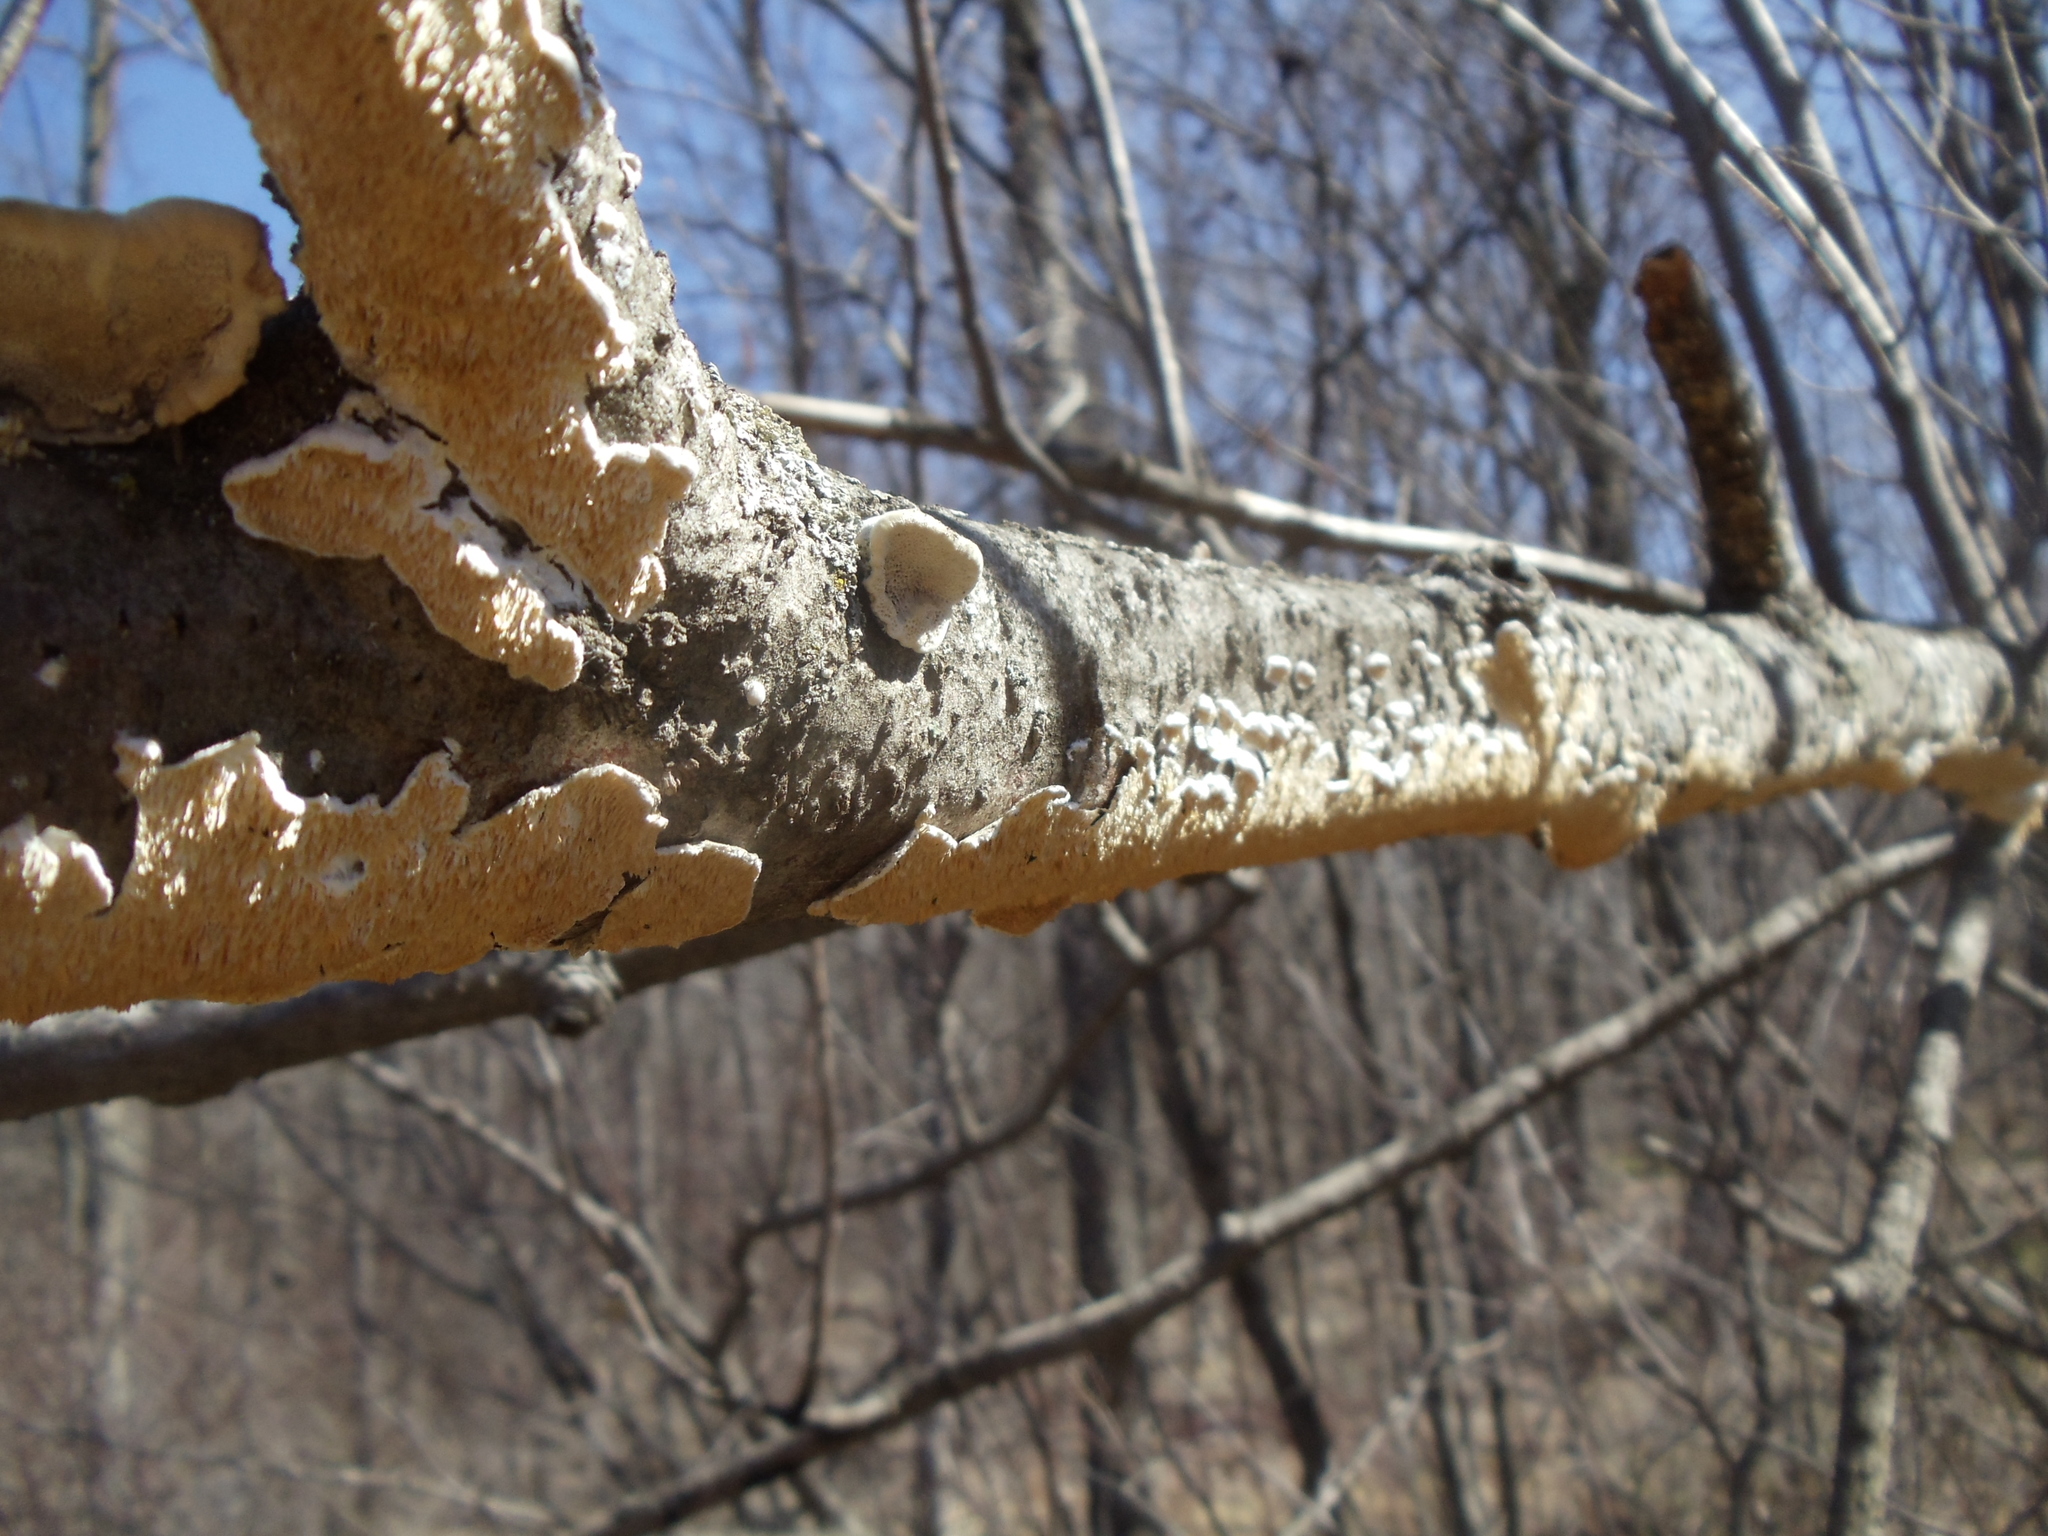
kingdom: Fungi
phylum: Basidiomycota
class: Agaricomycetes
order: Polyporales
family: Irpicaceae
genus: Irpex
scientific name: Irpex lacteus
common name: Milk-white toothed polypore
